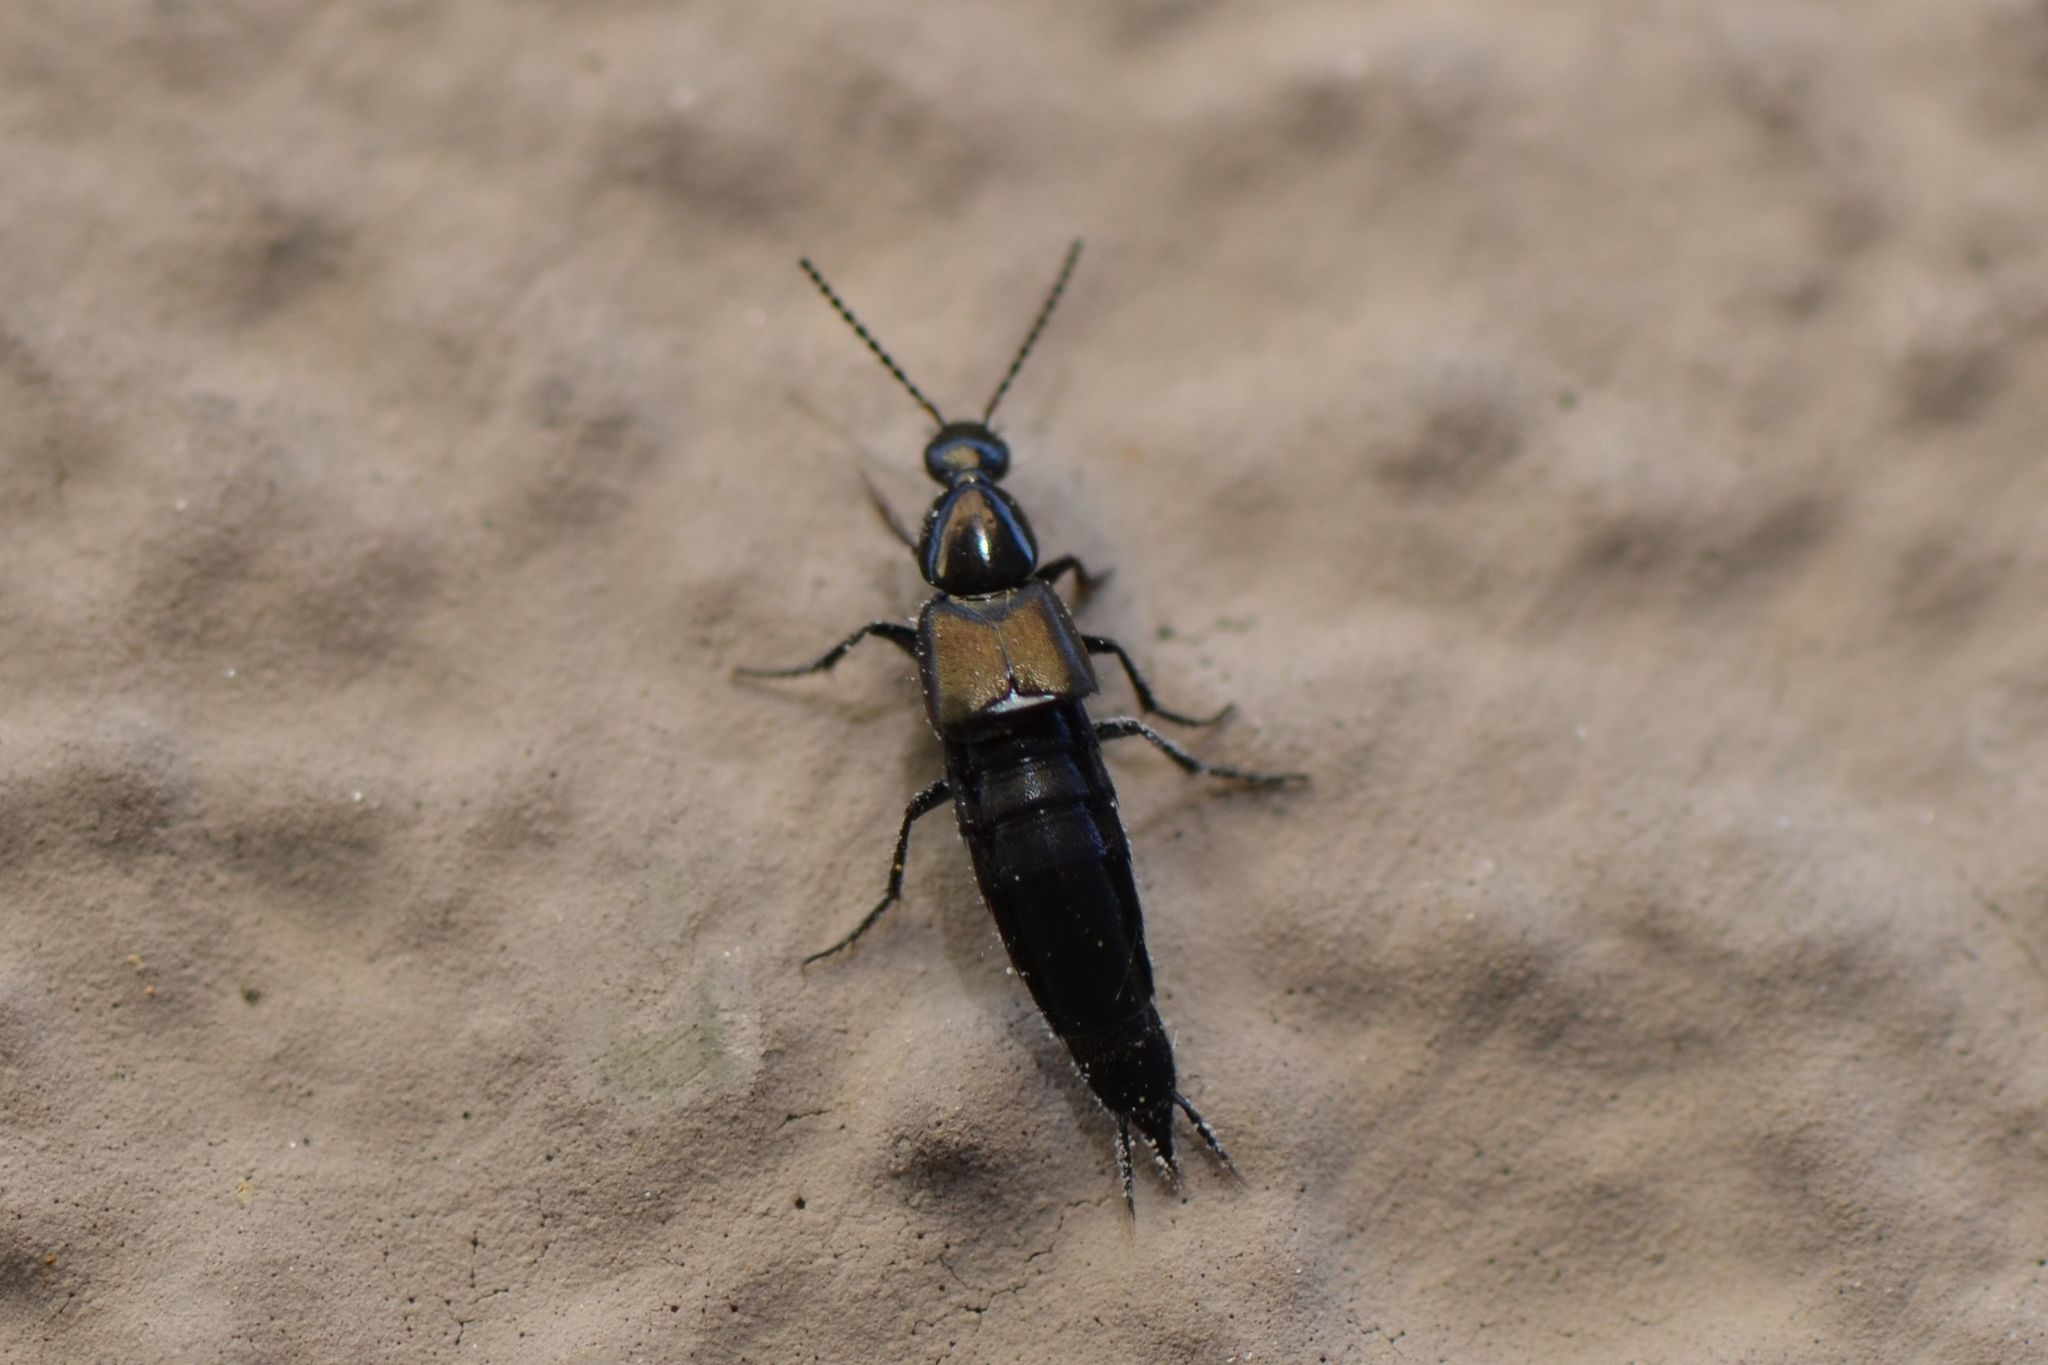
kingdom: Animalia
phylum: Arthropoda
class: Insecta
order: Coleoptera
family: Staphylinidae
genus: Philonthus
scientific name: Philonthus cognatus
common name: Staph beetle
